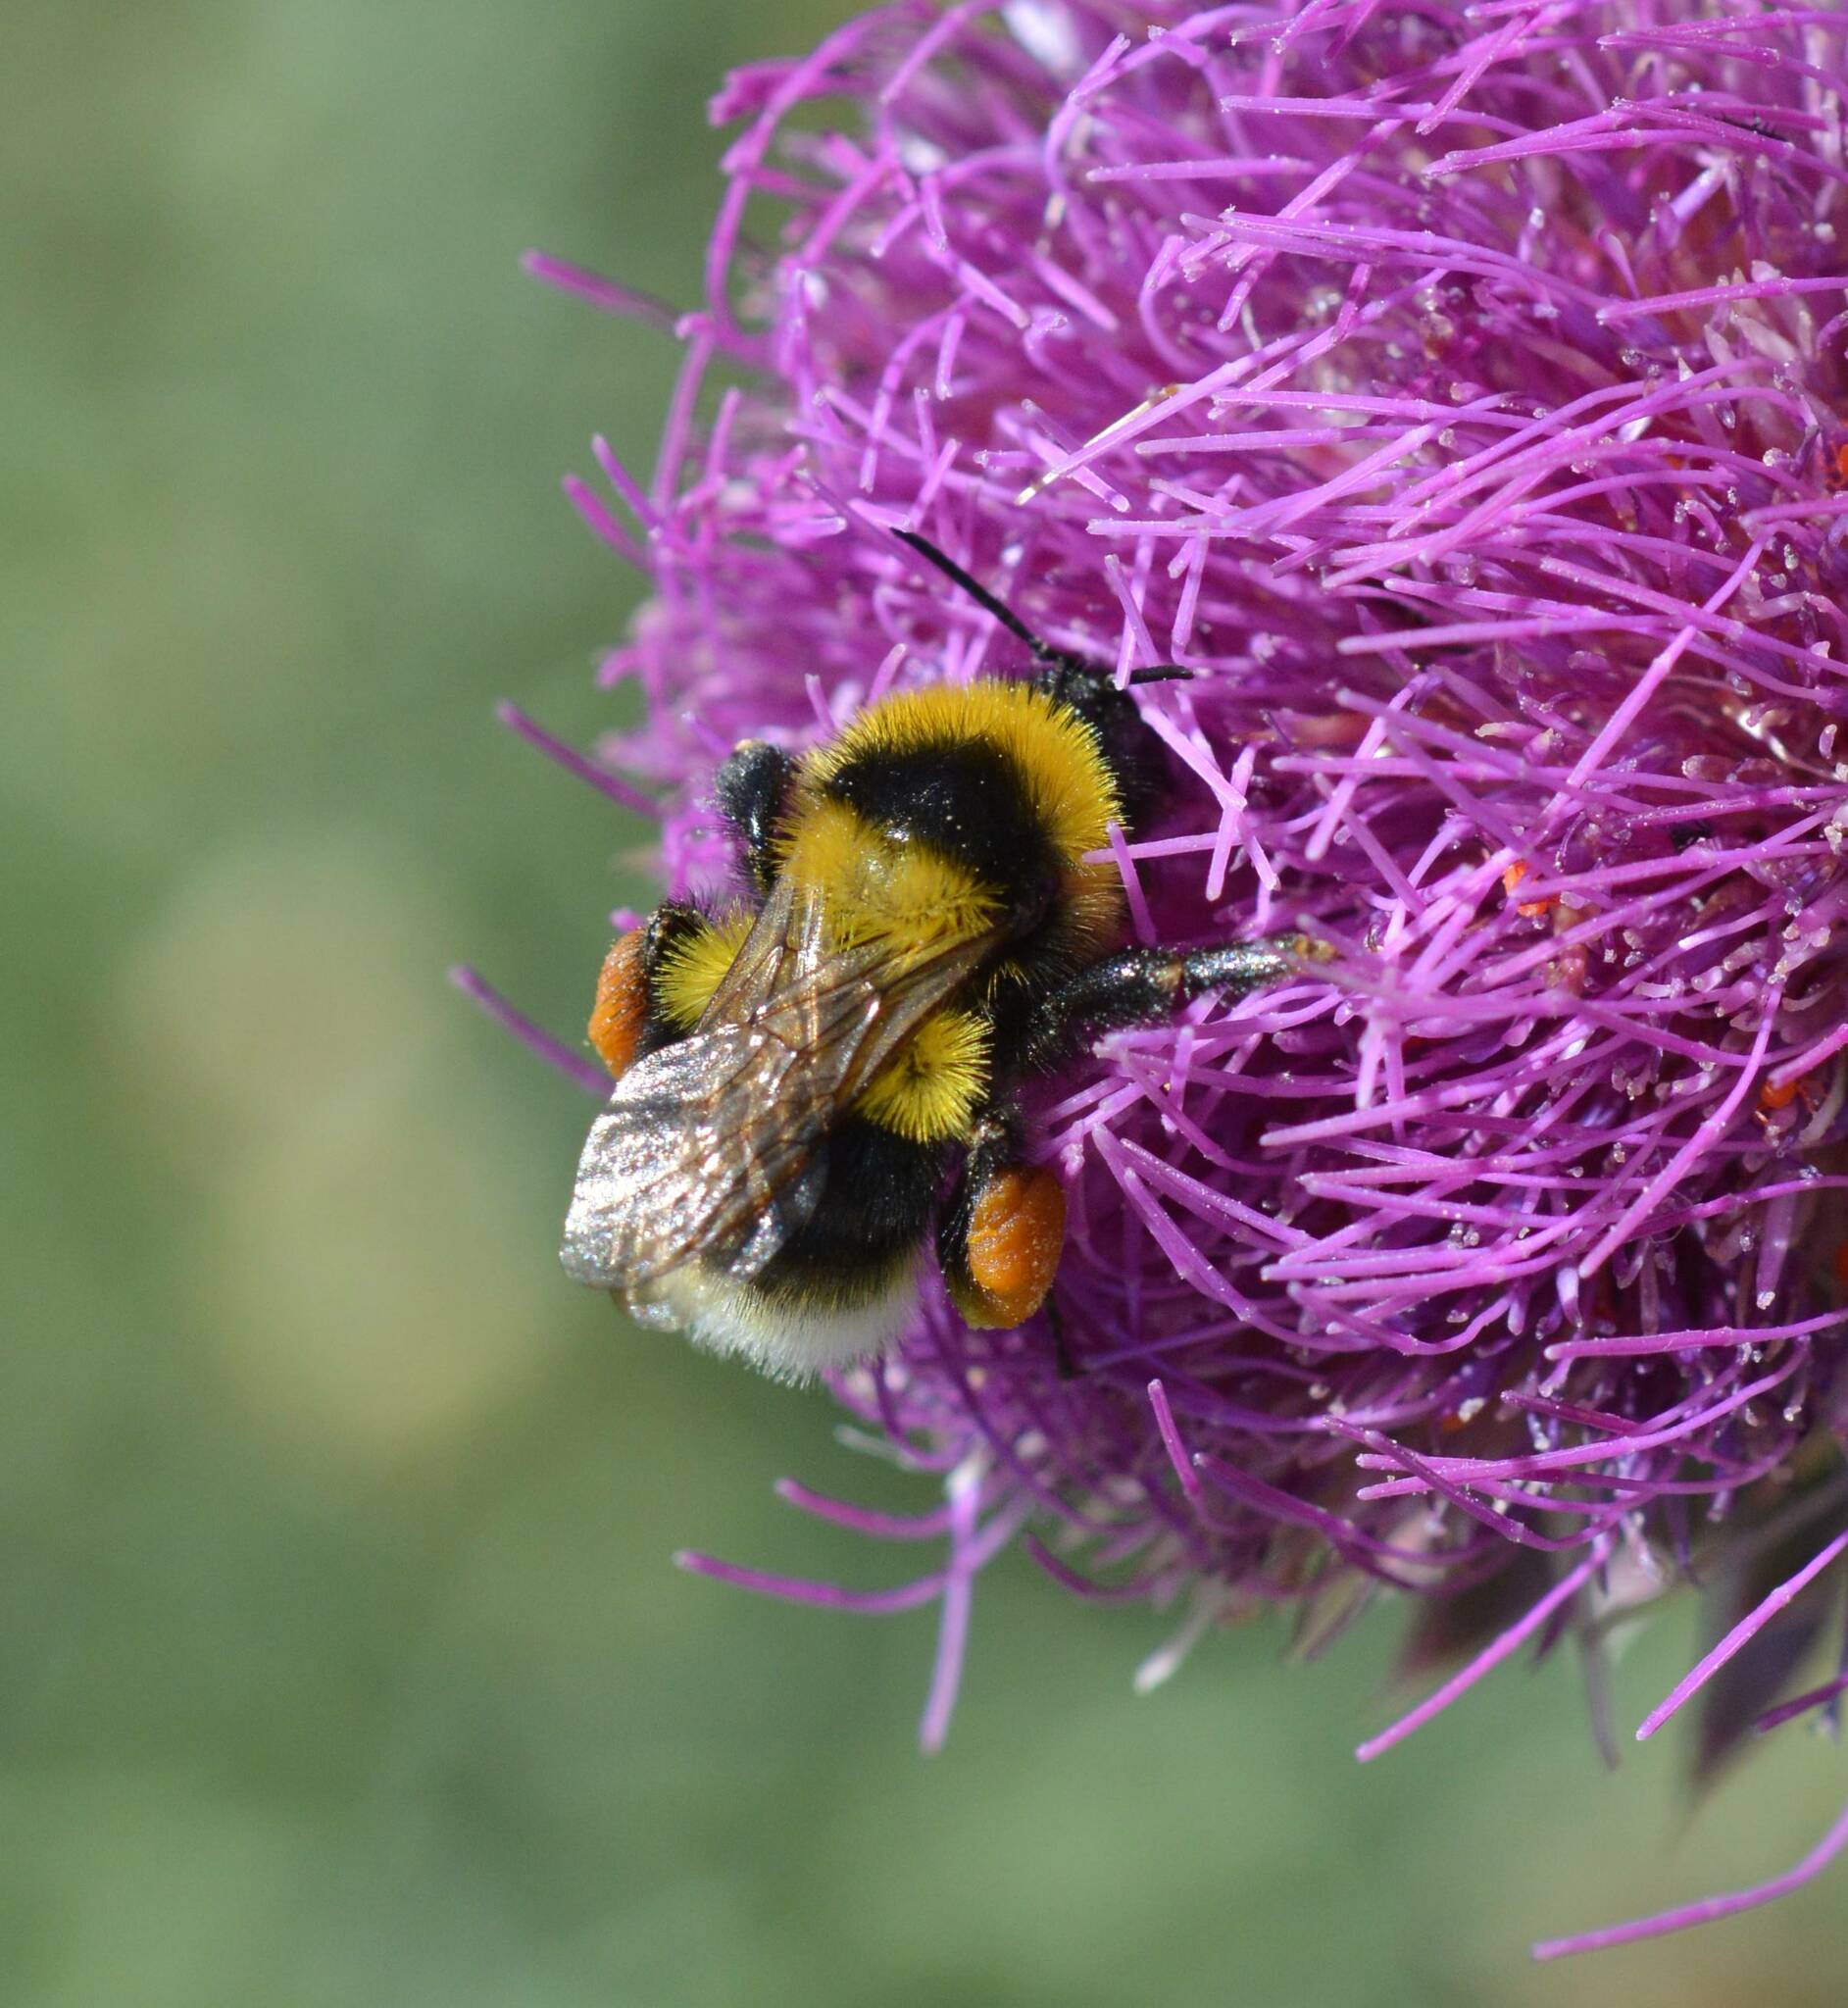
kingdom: Animalia
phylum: Arthropoda
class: Insecta
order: Hymenoptera
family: Apidae
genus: Bombus
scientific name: Bombus ruderatus
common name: Large garden bumblebee
